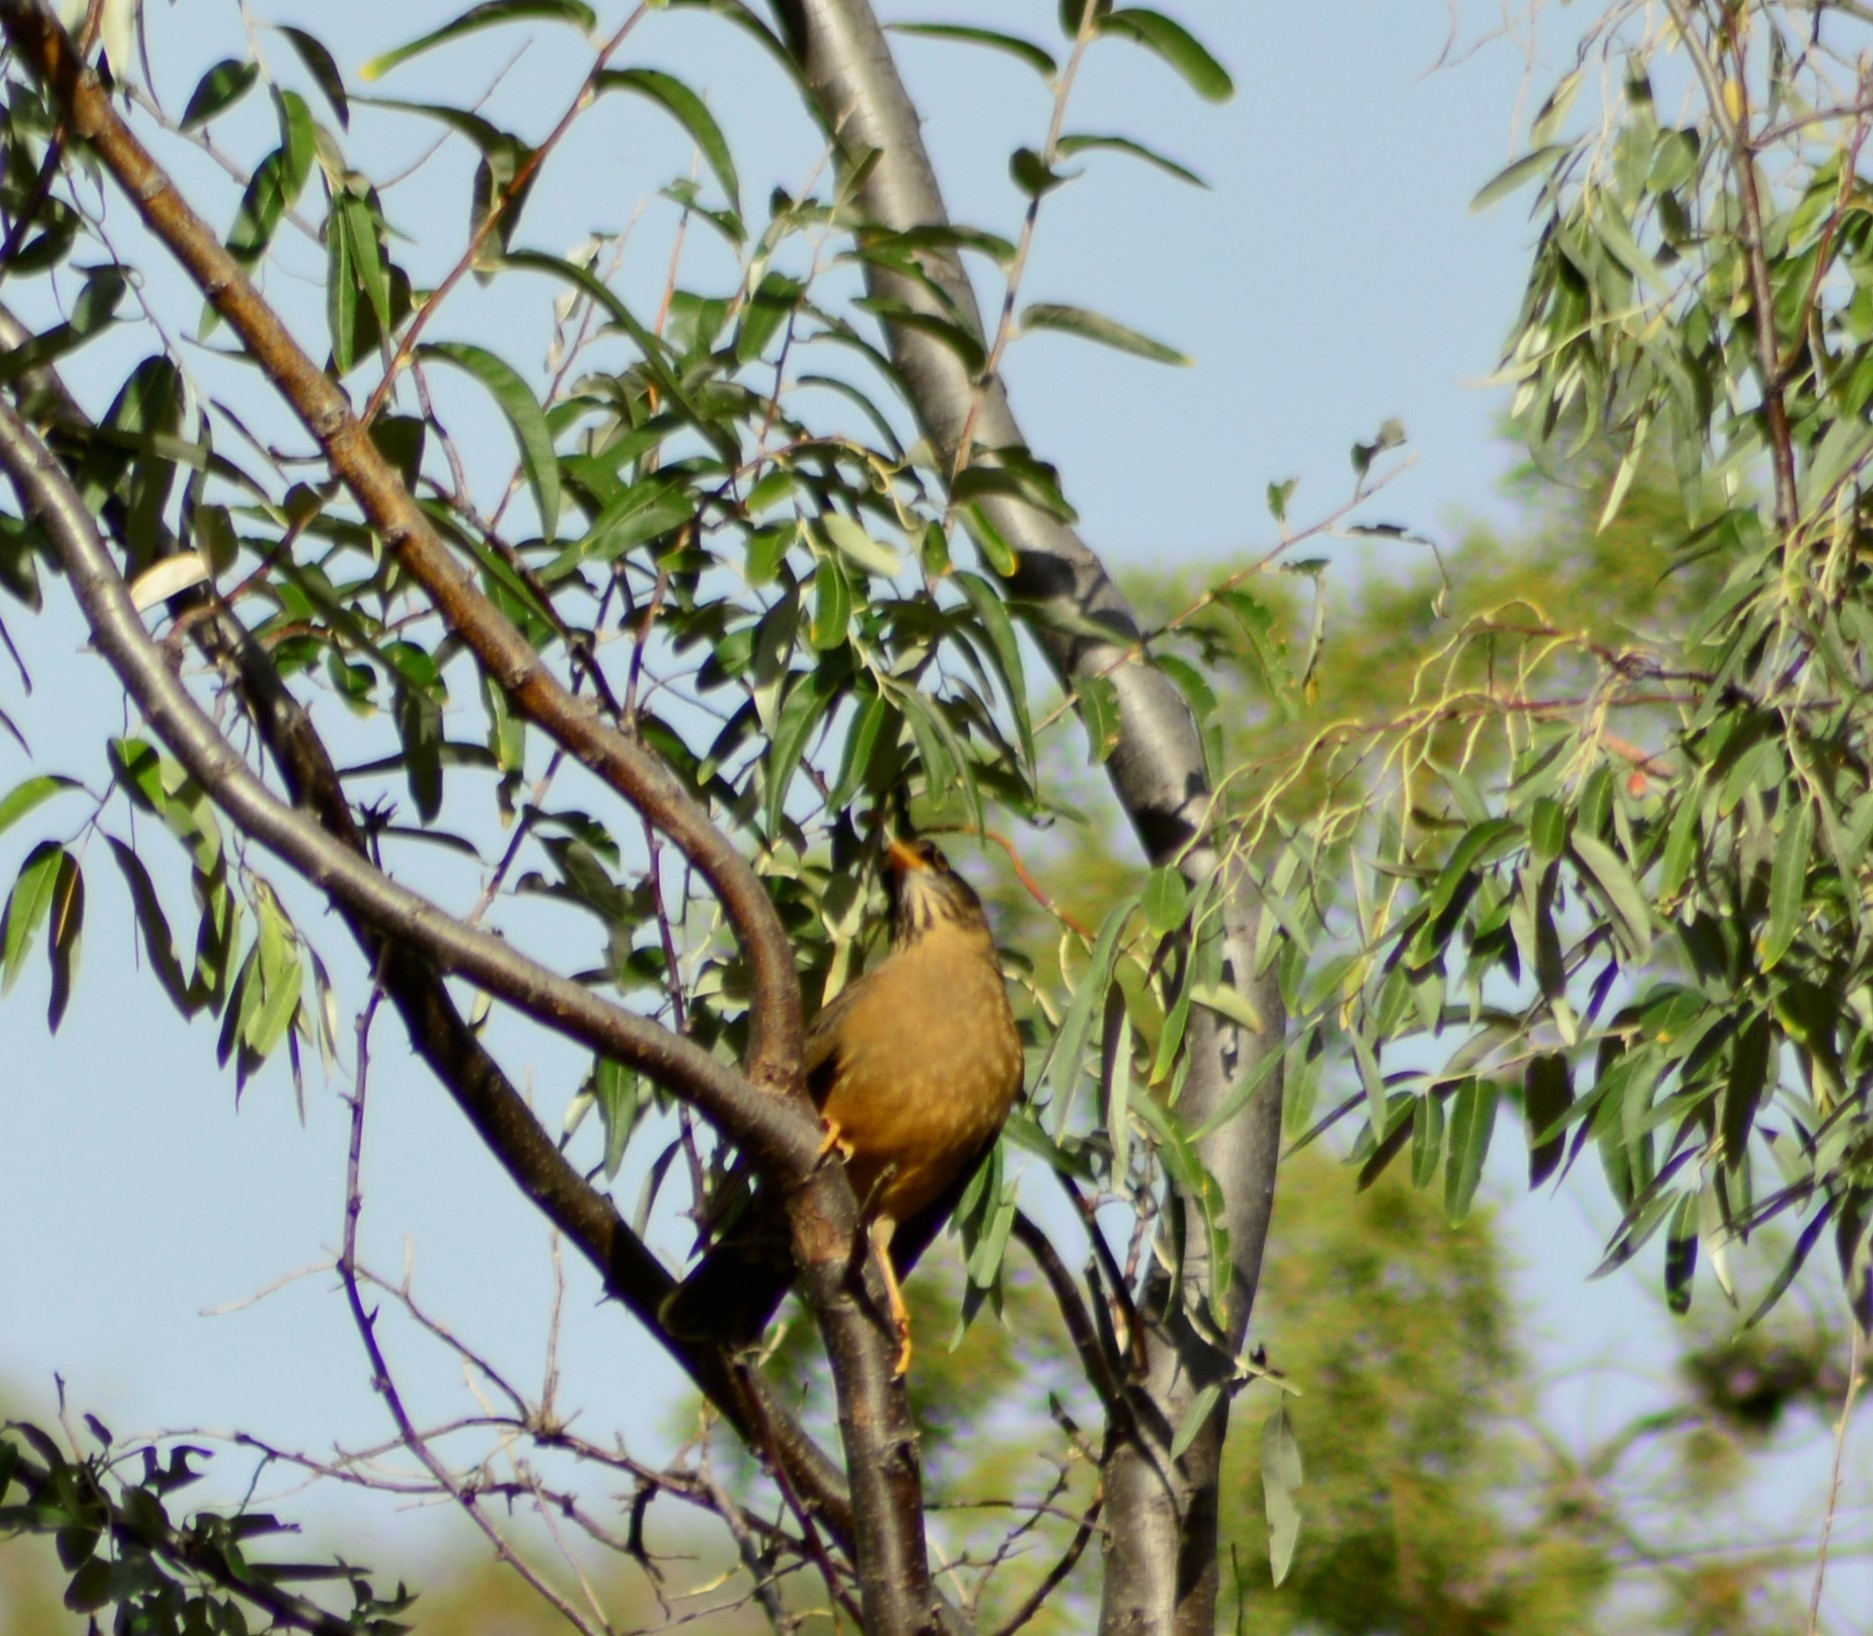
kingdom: Animalia
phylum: Chordata
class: Aves
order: Passeriformes
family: Turdidae
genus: Turdus
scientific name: Turdus falcklandii
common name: Austral thrush
